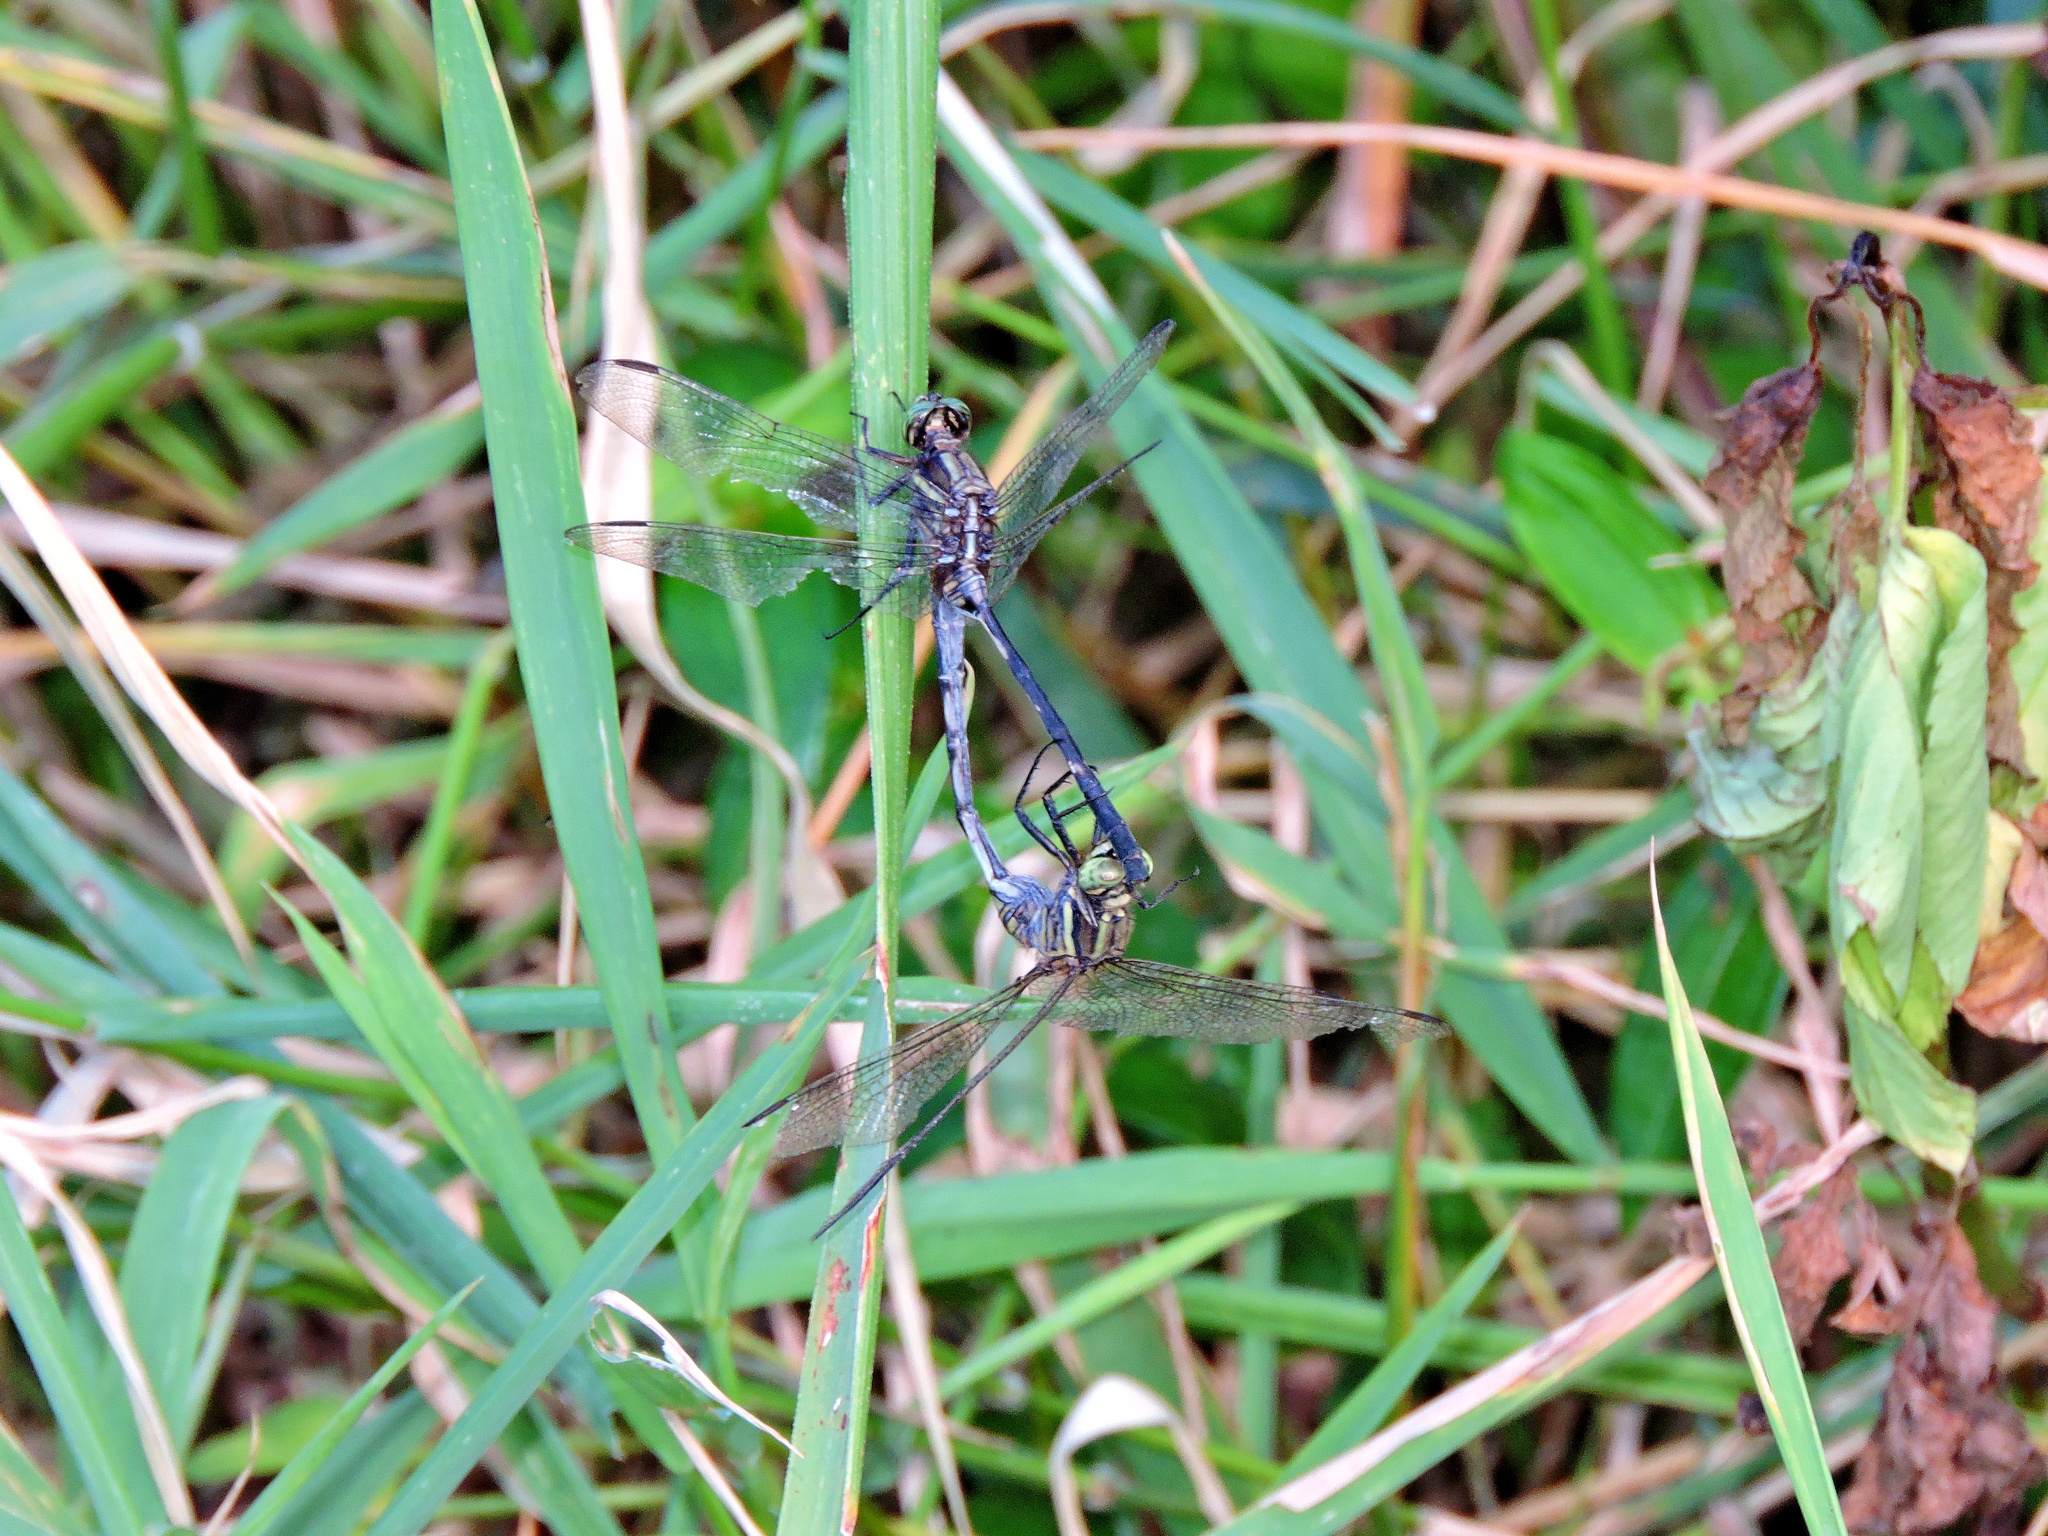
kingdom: Animalia
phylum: Arthropoda
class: Insecta
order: Odonata
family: Libellulidae
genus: Orthetrum
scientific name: Orthetrum sabina
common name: Slender skimmer
